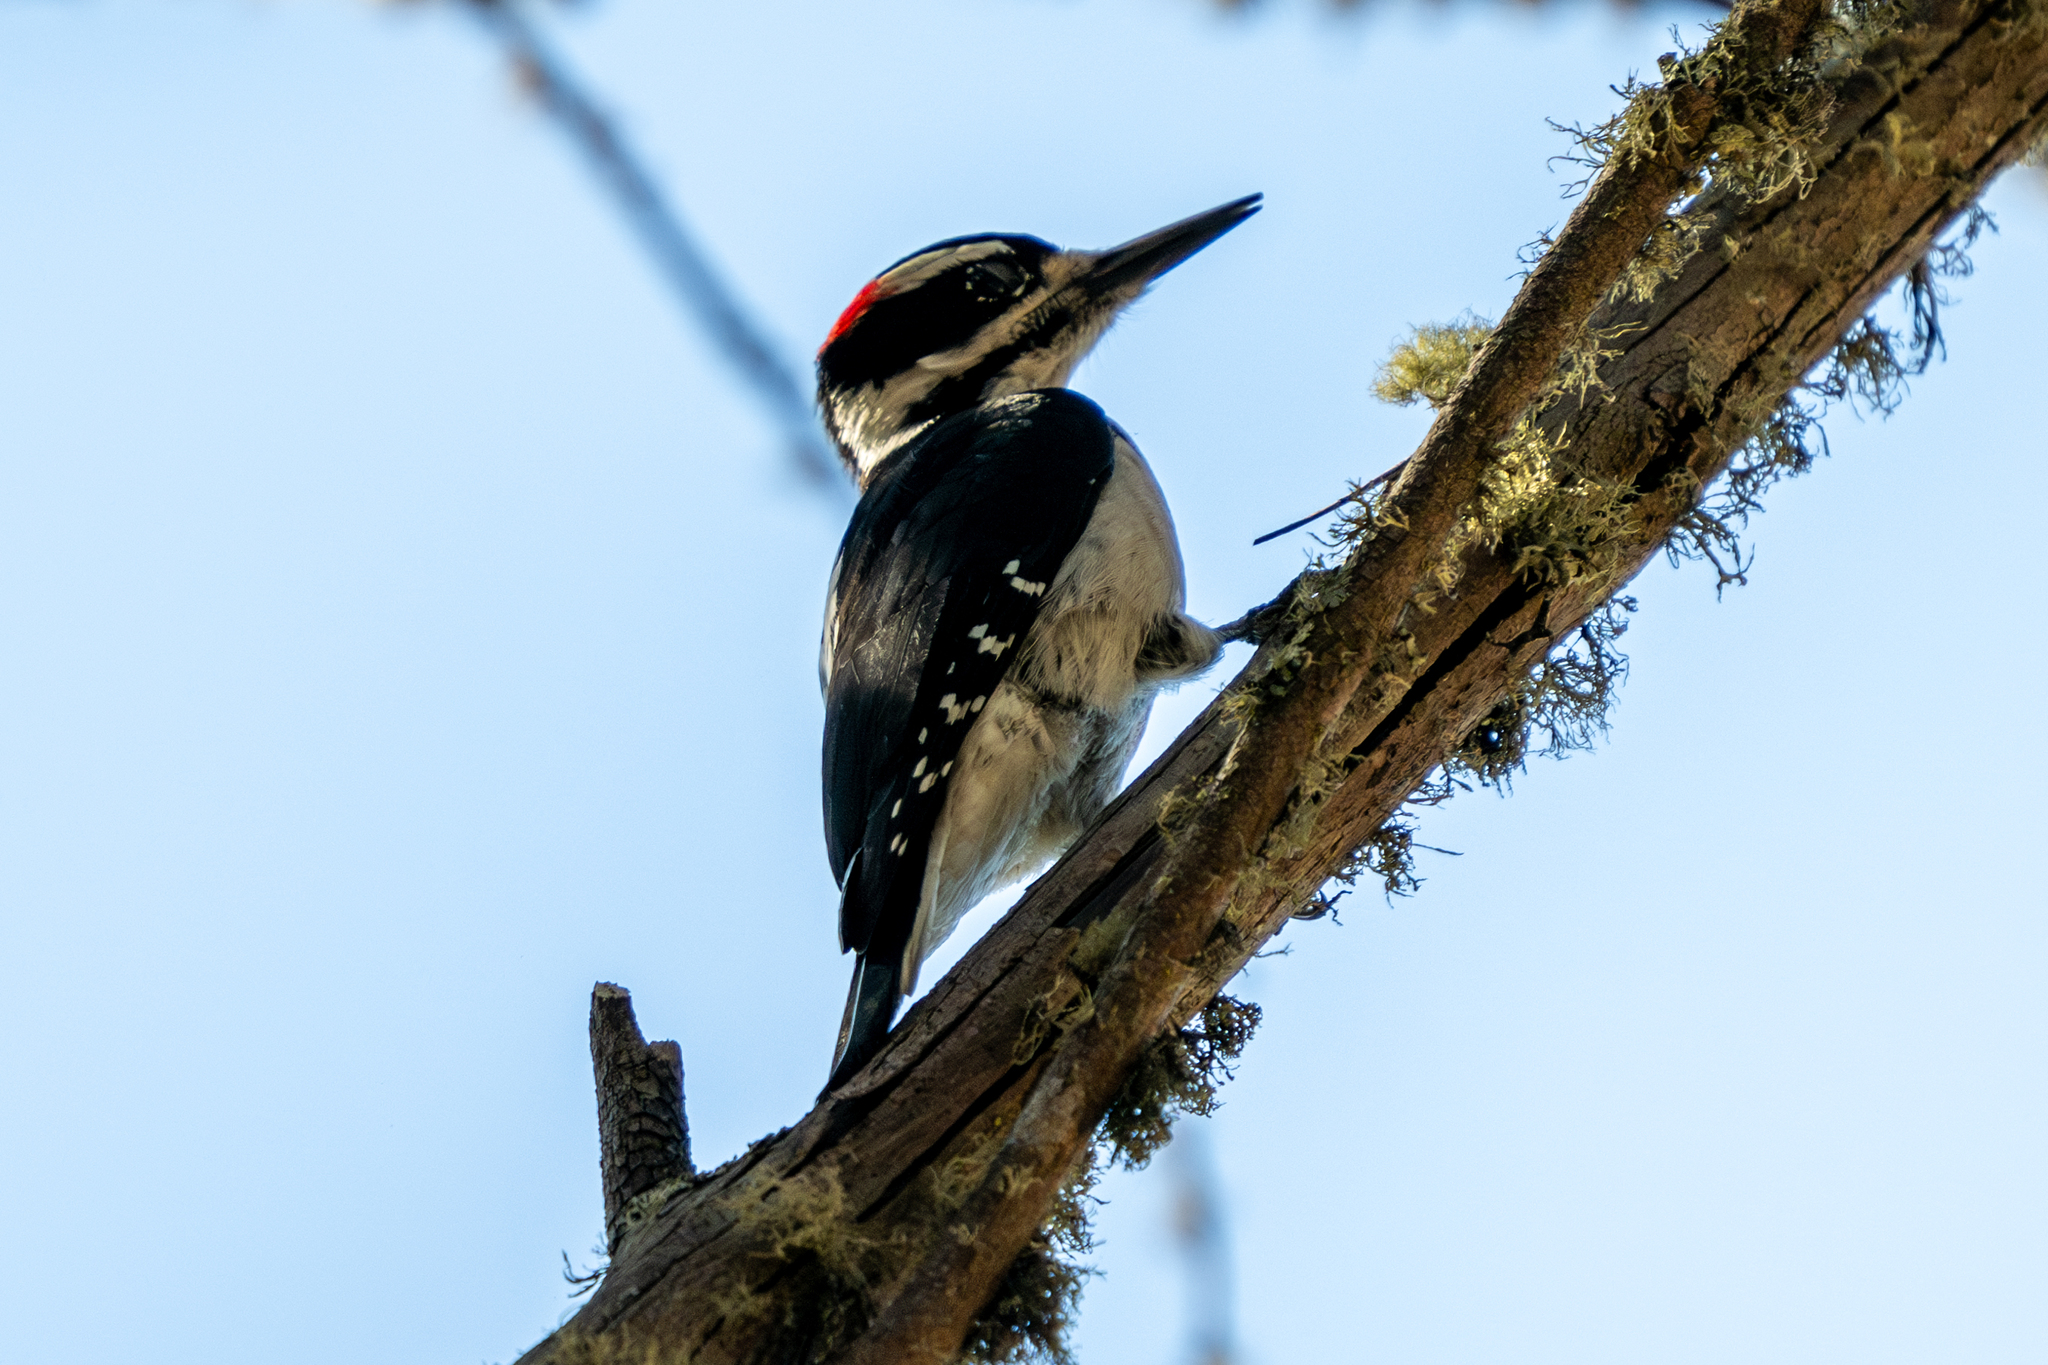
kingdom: Animalia
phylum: Chordata
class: Aves
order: Piciformes
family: Picidae
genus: Leuconotopicus
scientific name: Leuconotopicus villosus
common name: Hairy woodpecker
